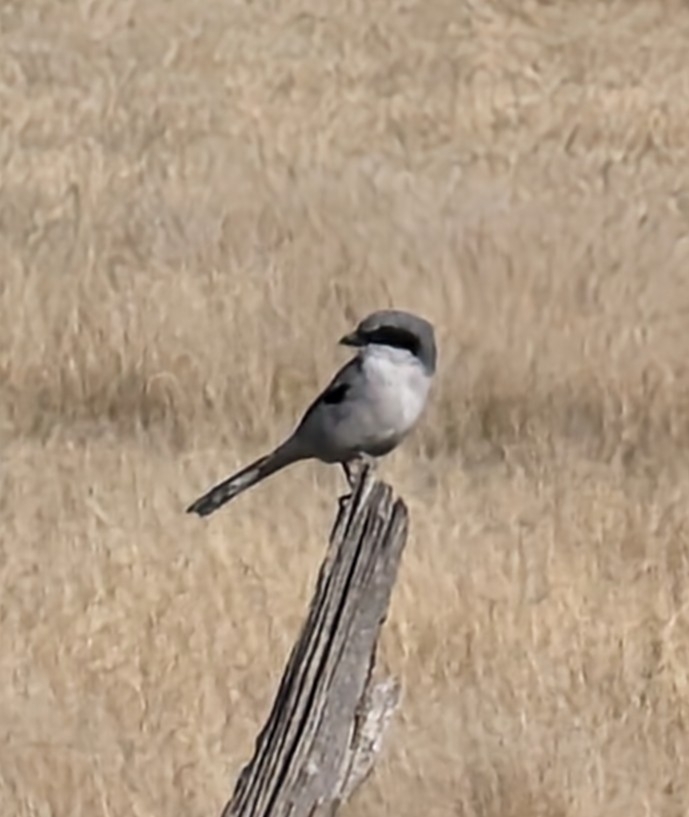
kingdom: Animalia
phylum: Chordata
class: Aves
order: Passeriformes
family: Laniidae
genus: Lanius
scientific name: Lanius ludovicianus
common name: Loggerhead shrike
